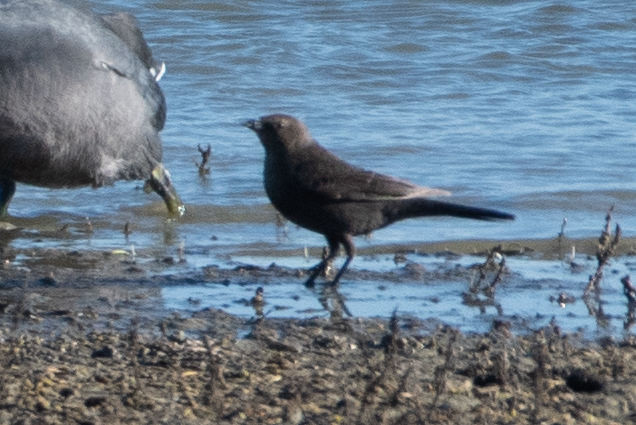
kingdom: Animalia
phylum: Chordata
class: Aves
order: Passeriformes
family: Icteridae
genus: Euphagus
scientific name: Euphagus cyanocephalus
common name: Brewer's blackbird
